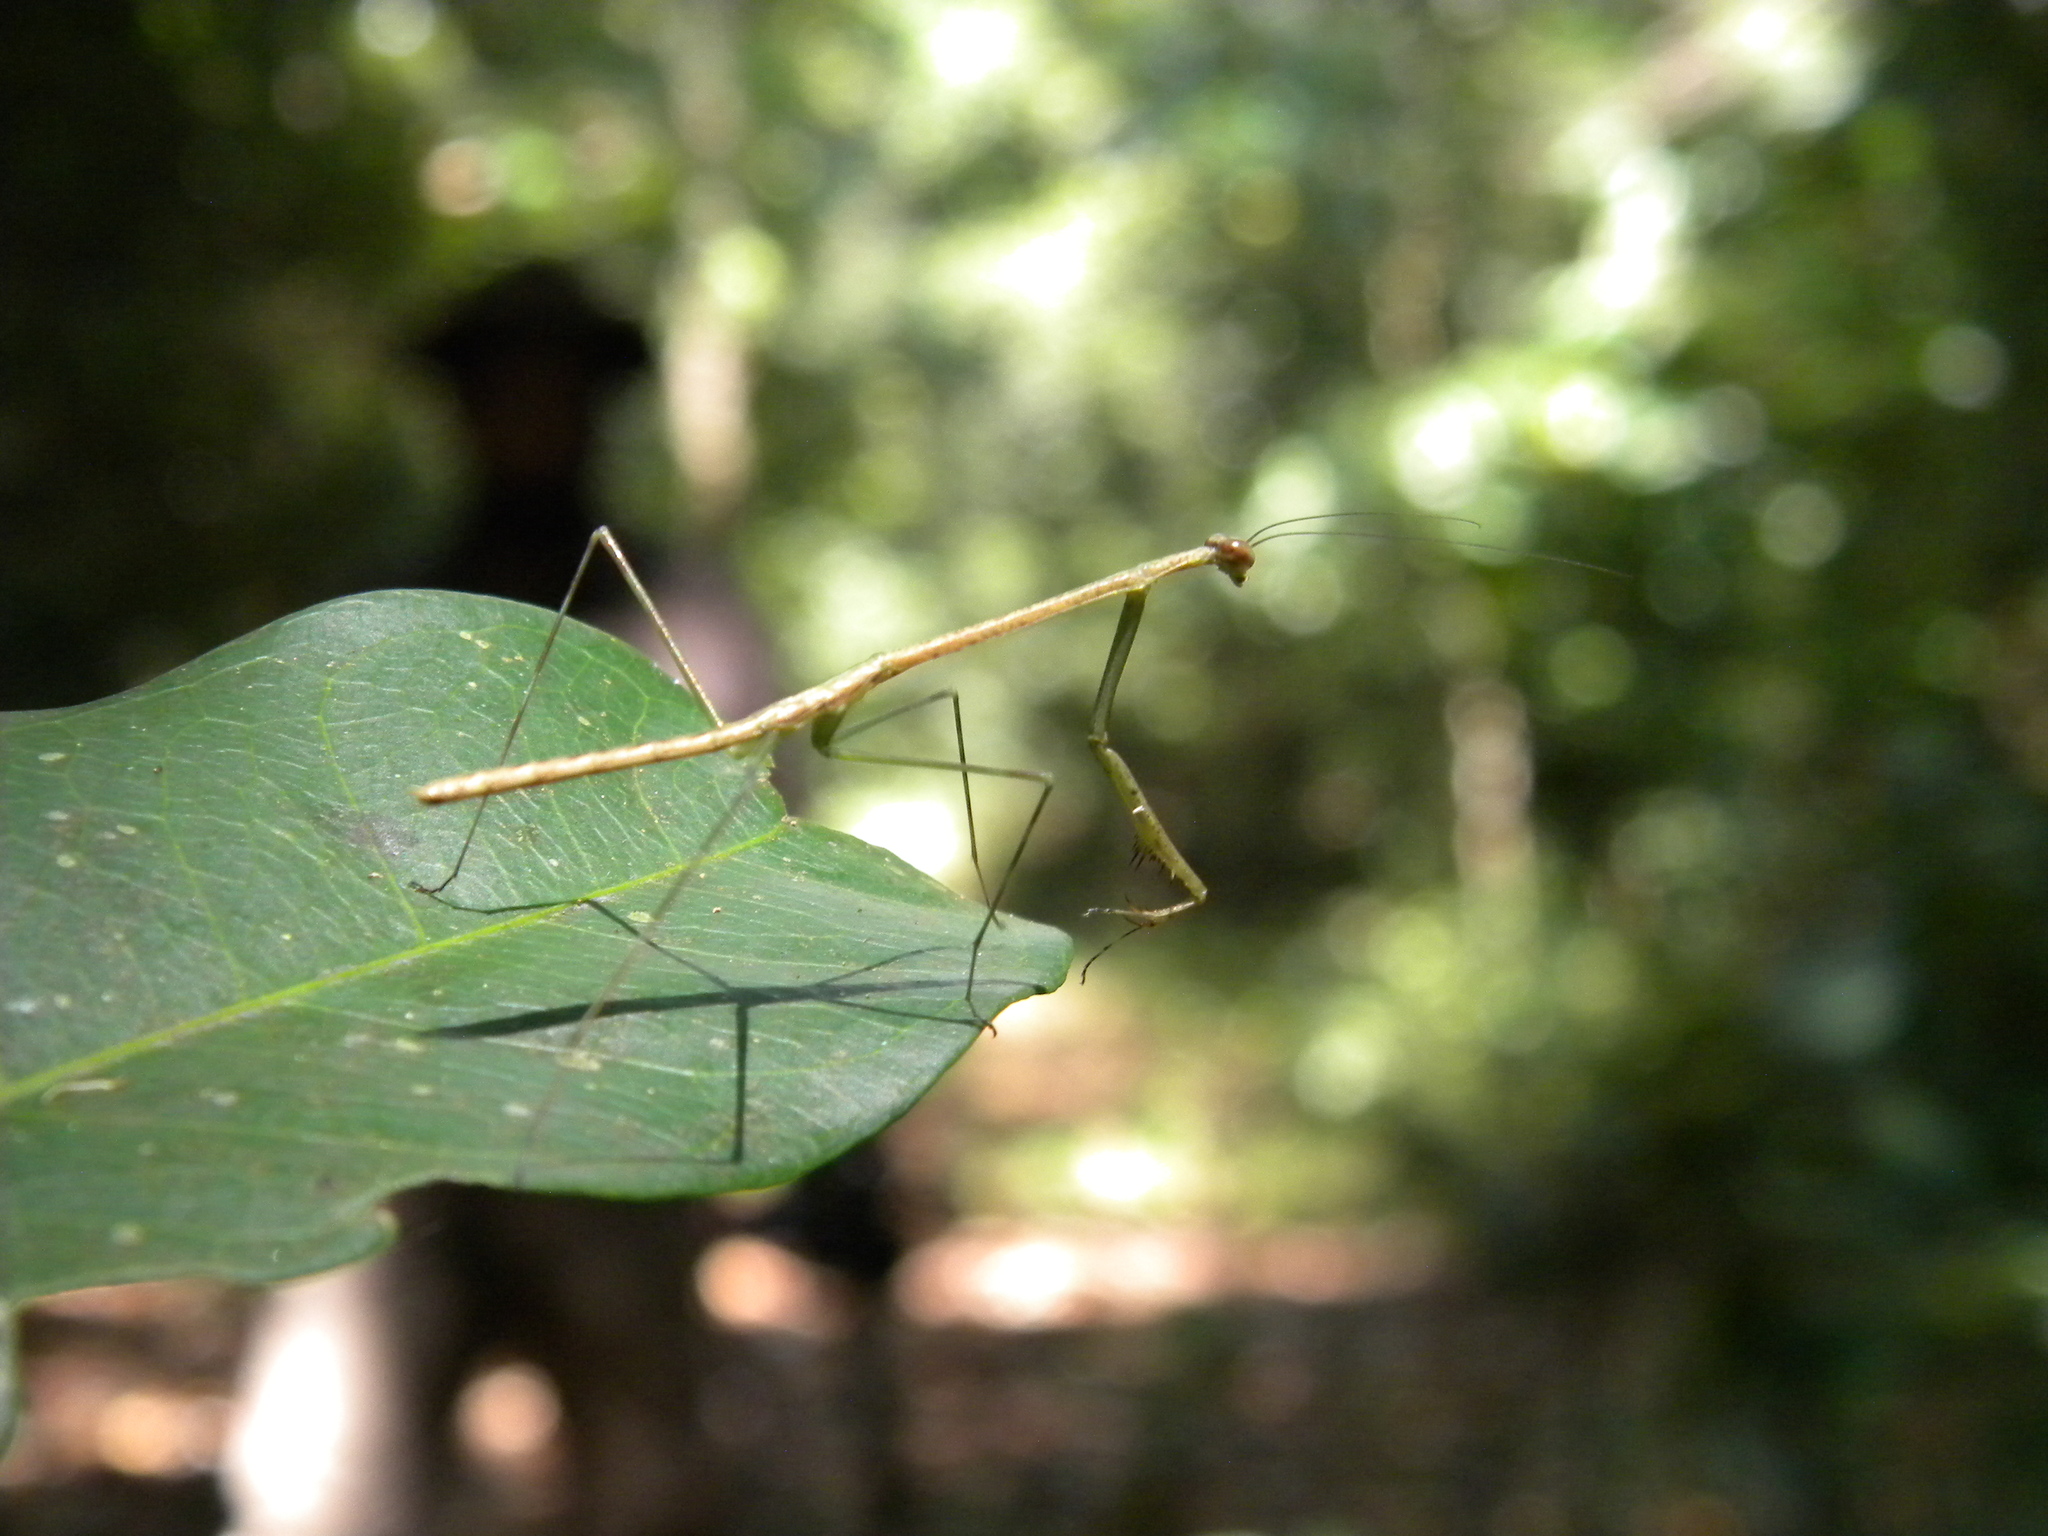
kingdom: Animalia
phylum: Arthropoda
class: Insecta
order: Mantodea
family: Deroplatyidae
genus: Indomenella
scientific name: Indomenella indica
